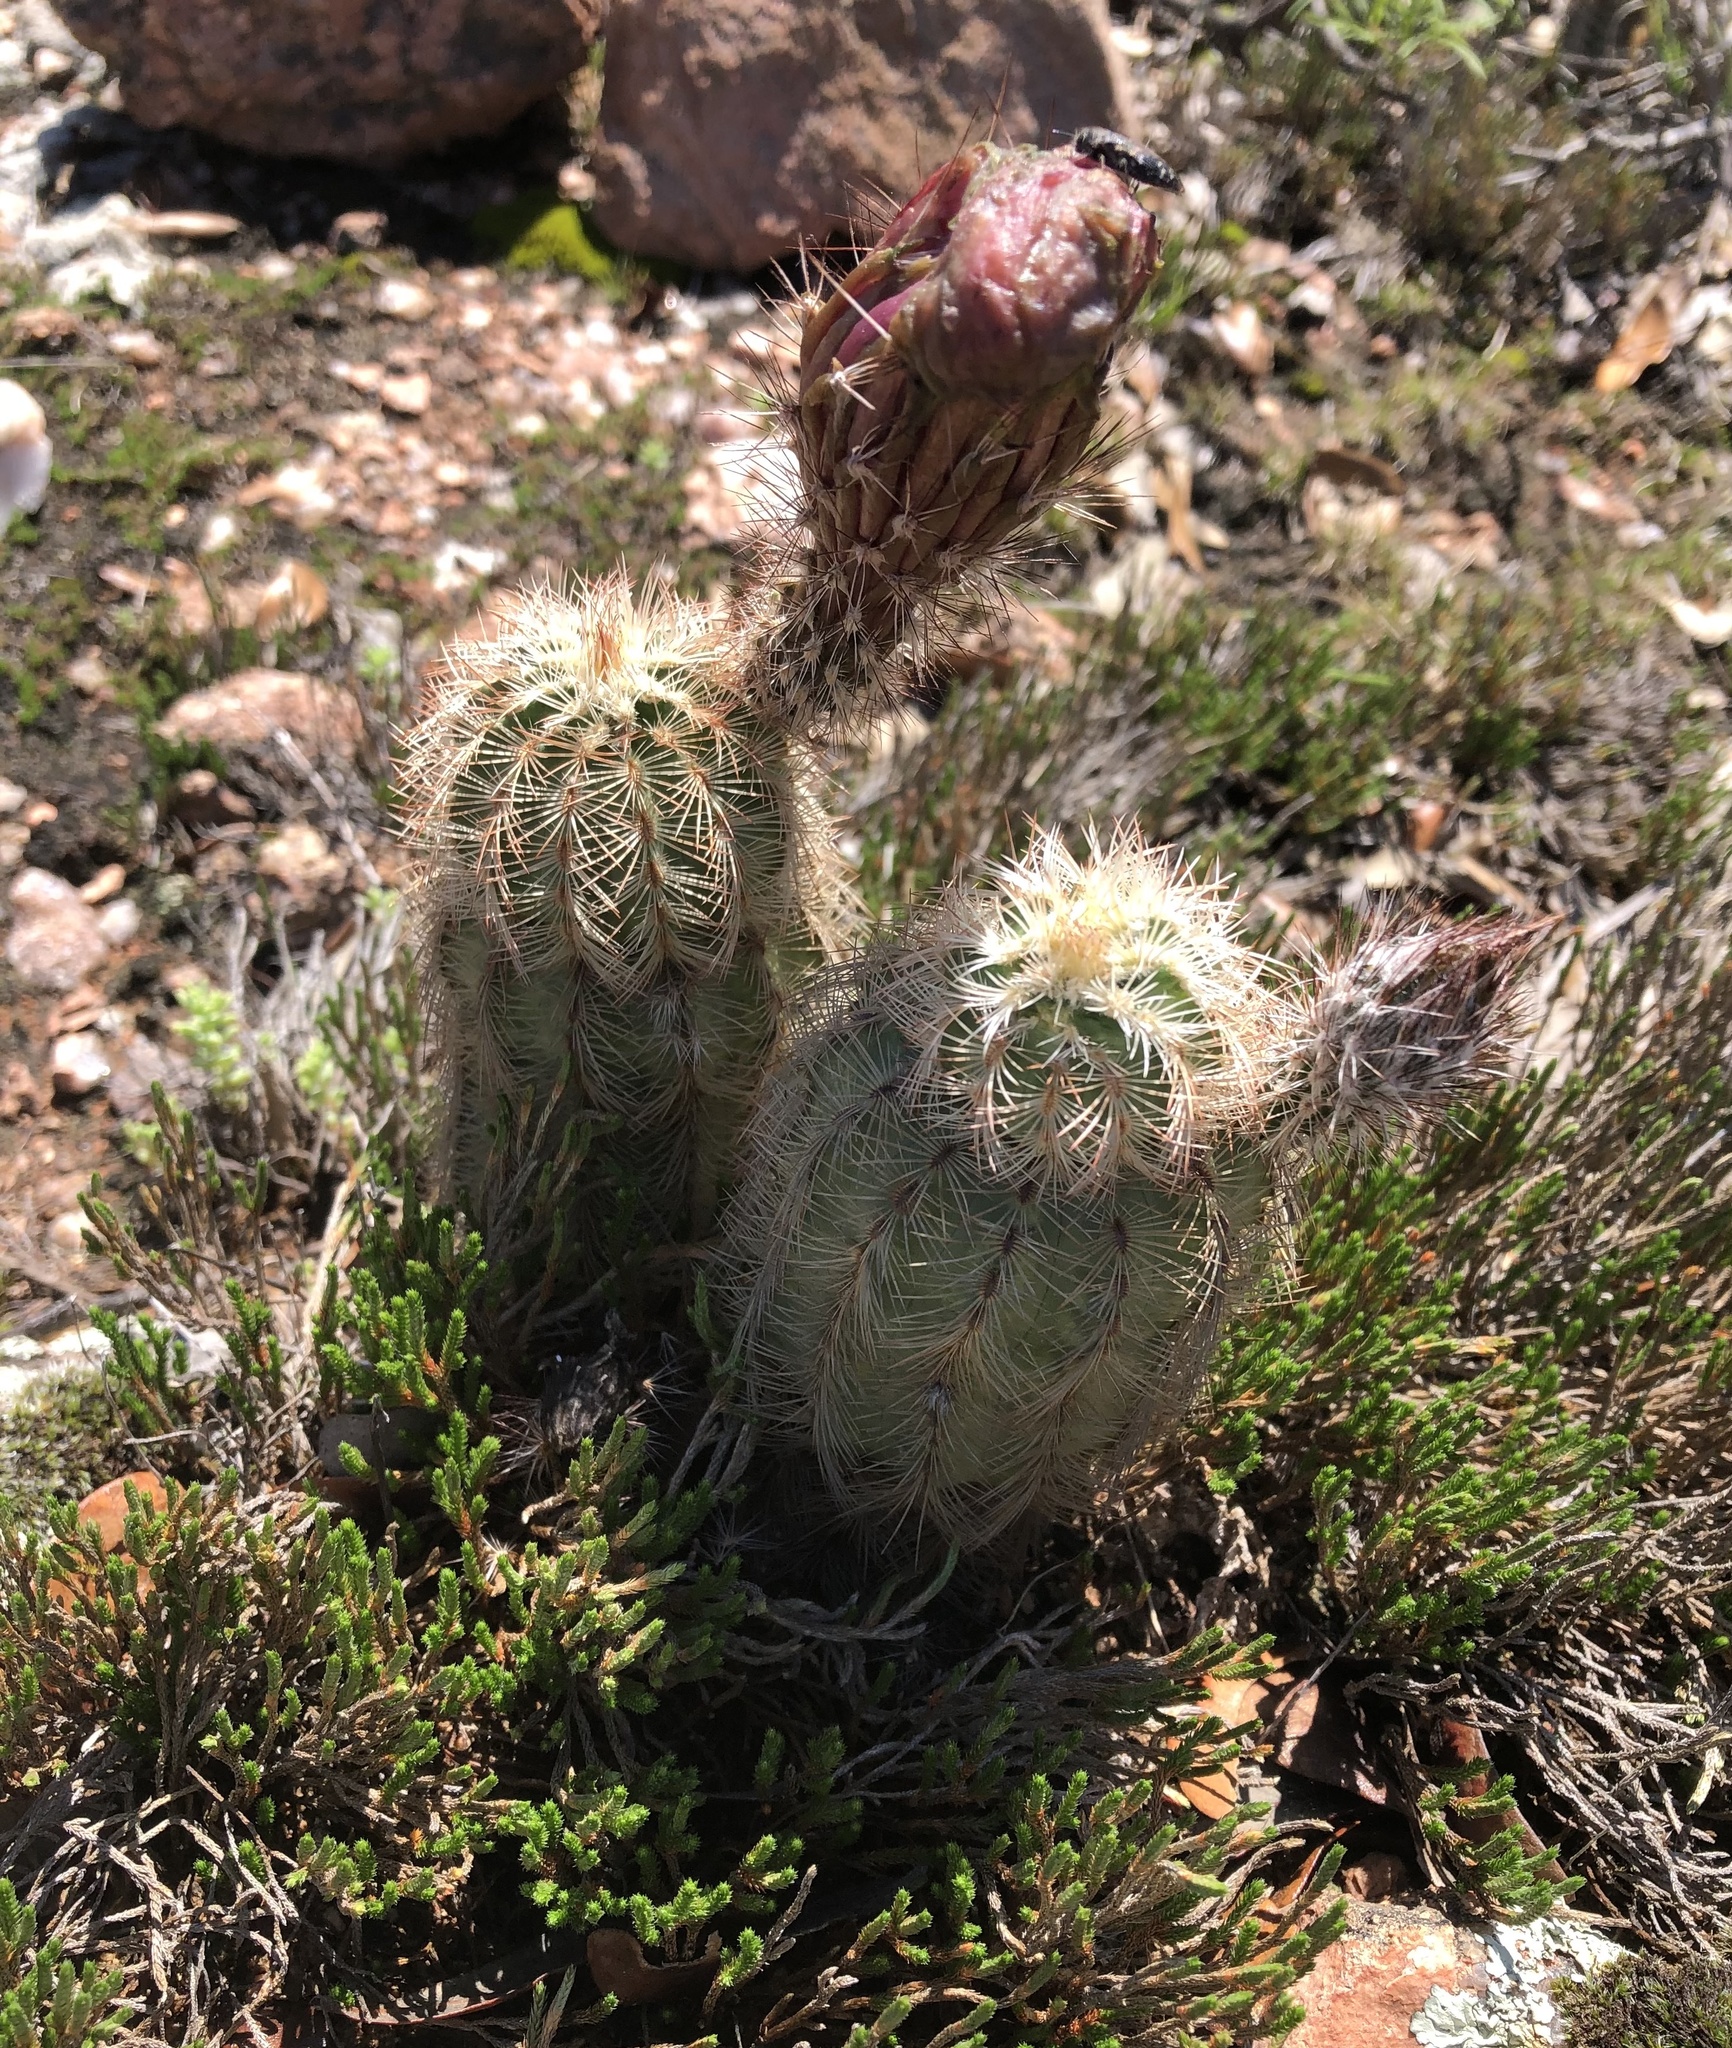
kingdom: Plantae
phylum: Tracheophyta
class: Magnoliopsida
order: Caryophyllales
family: Cactaceae
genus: Echinocereus
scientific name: Echinocereus reichenbachii
